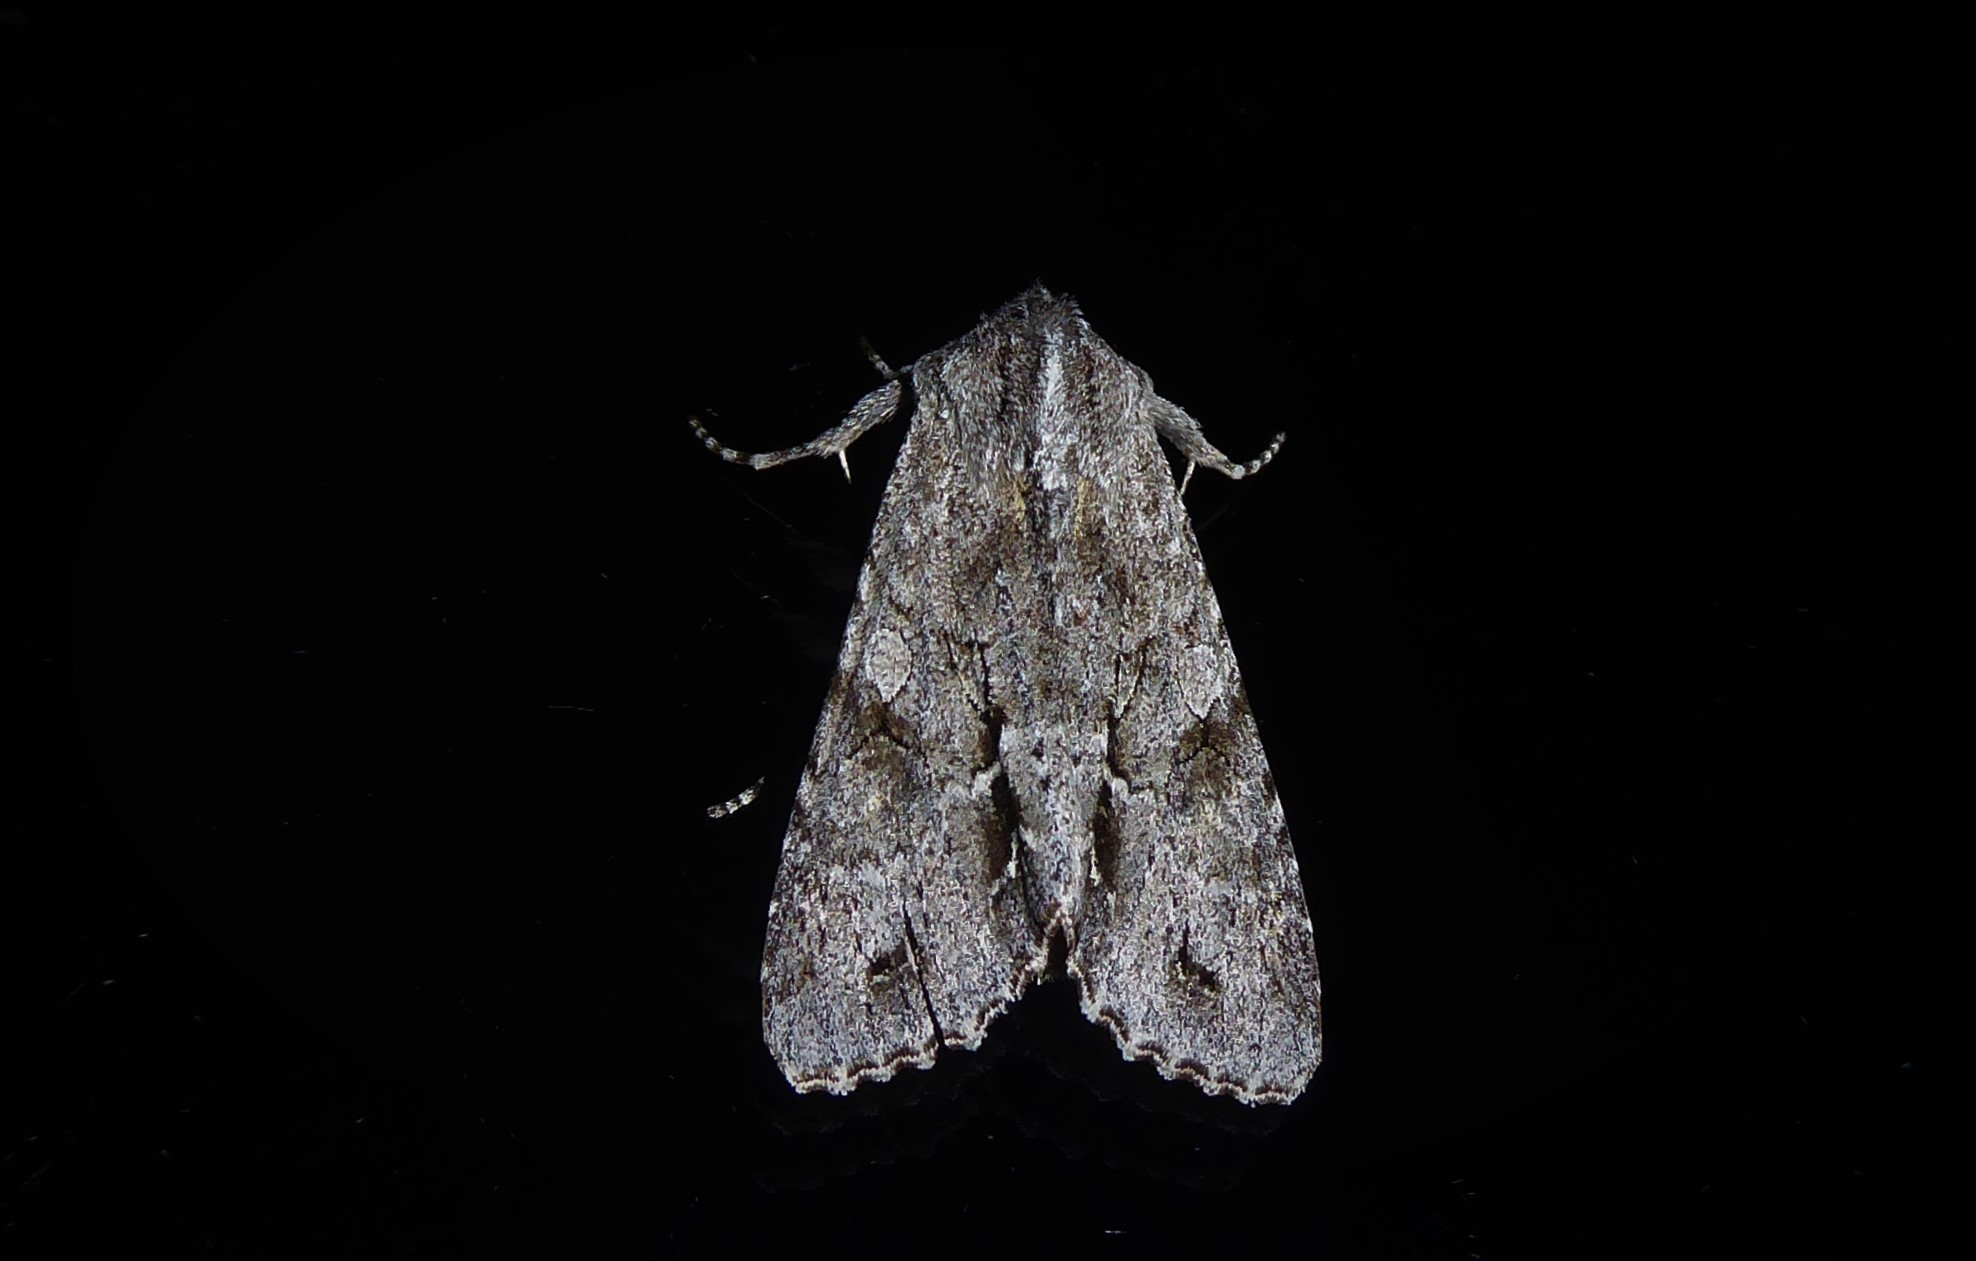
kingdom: Animalia
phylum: Arthropoda
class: Insecta
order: Lepidoptera
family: Noctuidae
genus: Ichneutica
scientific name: Ichneutica
